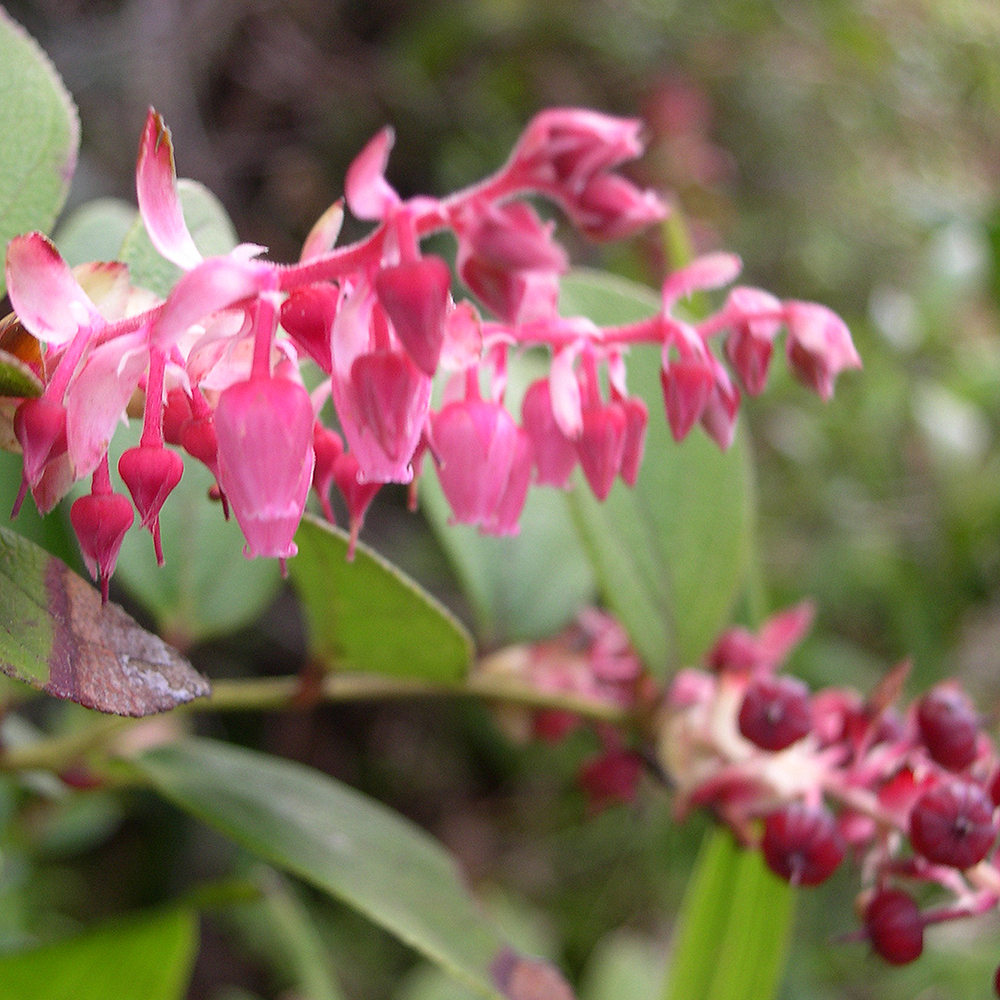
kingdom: Plantae
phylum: Tracheophyta
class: Magnoliopsida
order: Ericales
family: Ericaceae
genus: Gaultheria
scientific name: Gaultheria erecta
